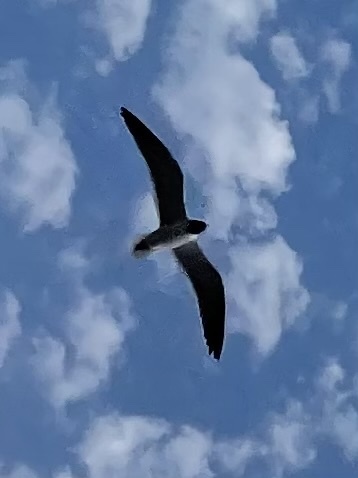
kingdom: Animalia
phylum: Chordata
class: Aves
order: Charadriiformes
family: Laridae
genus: Leucophaeus
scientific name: Leucophaeus atricilla
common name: Laughing gull
